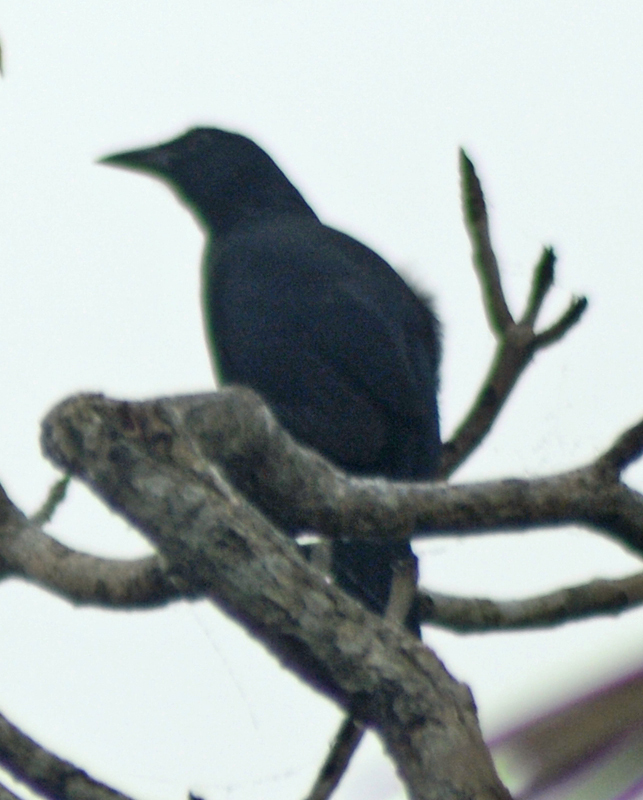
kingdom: Animalia
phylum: Chordata
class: Aves
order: Passeriformes
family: Icteridae
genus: Dives
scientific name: Dives dives
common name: Melodious blackbird
